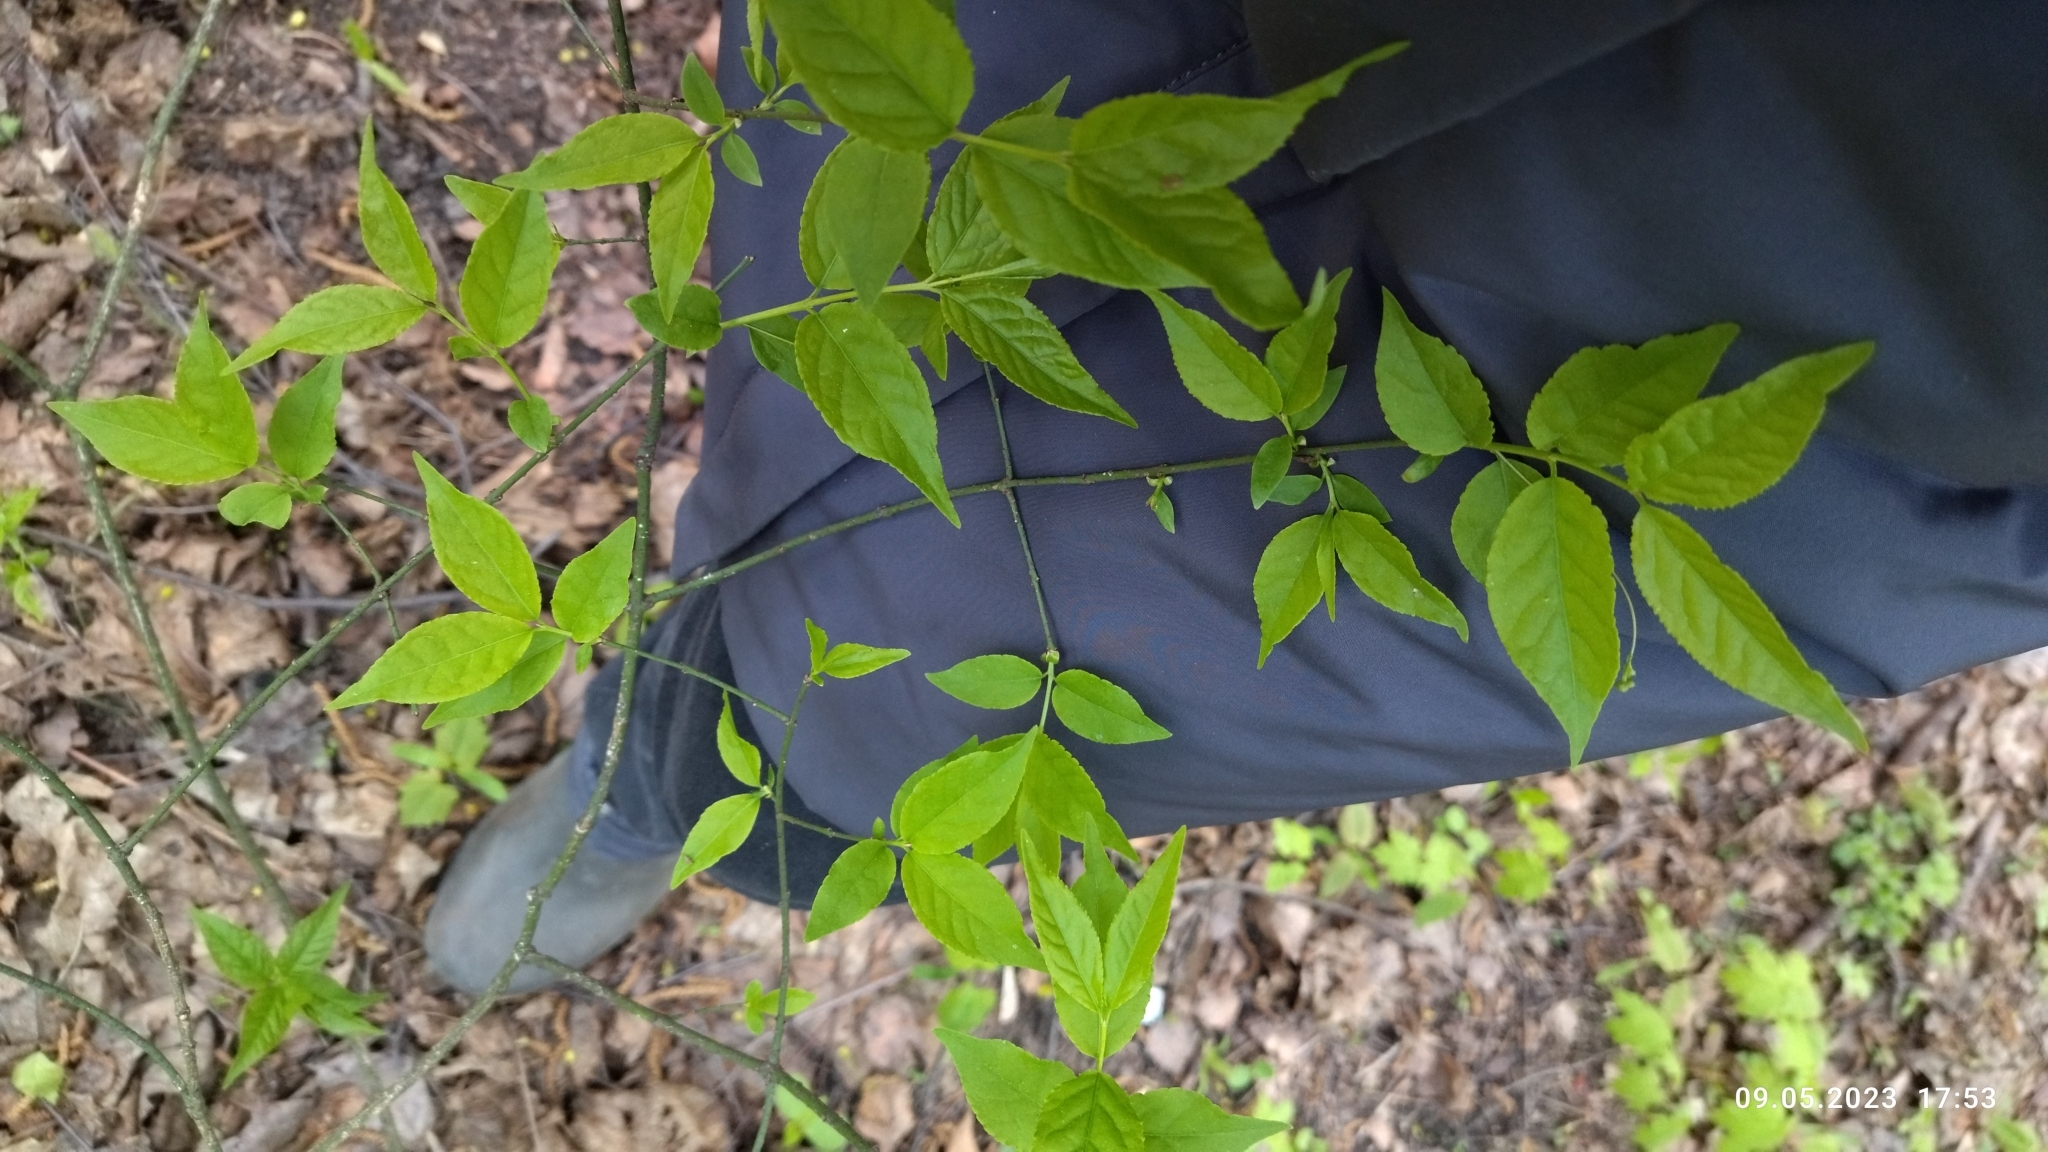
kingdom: Plantae
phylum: Tracheophyta
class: Magnoliopsida
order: Celastrales
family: Celastraceae
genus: Euonymus
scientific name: Euonymus verrucosus
